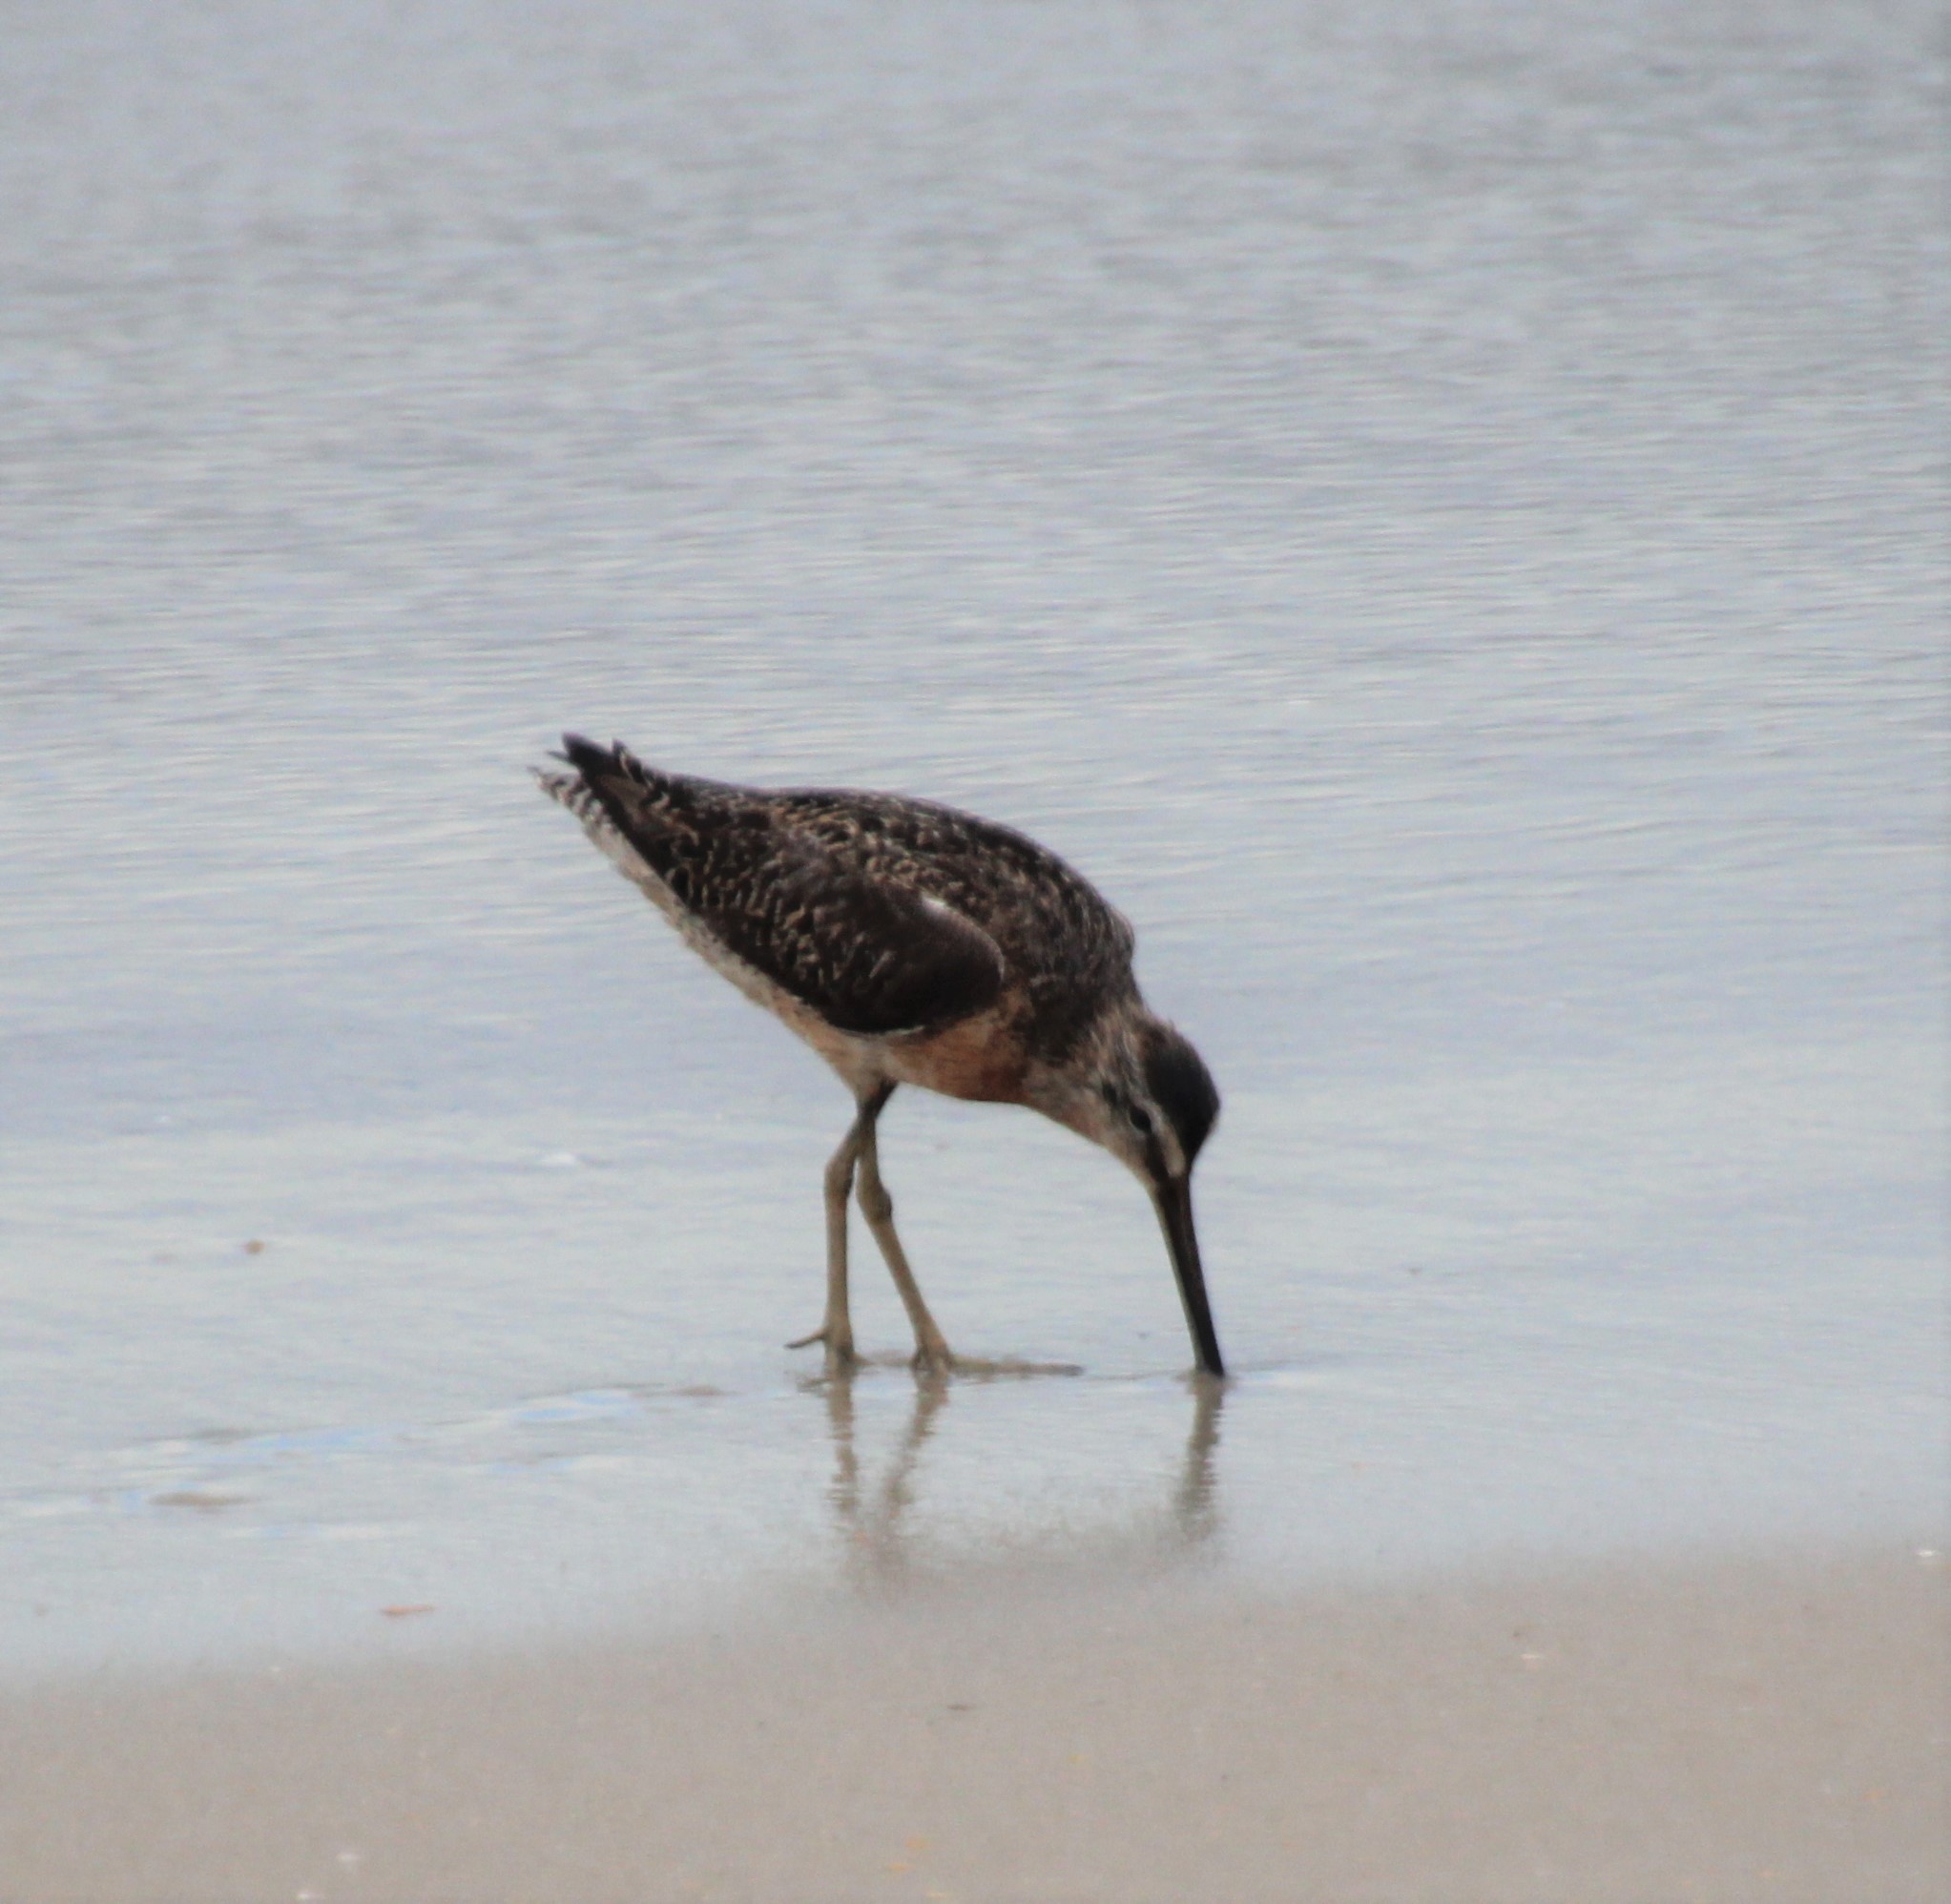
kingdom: Animalia
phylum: Chordata
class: Aves
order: Charadriiformes
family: Scolopacidae
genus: Limnodromus
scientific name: Limnodromus griseus
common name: Short-billed dowitcher
